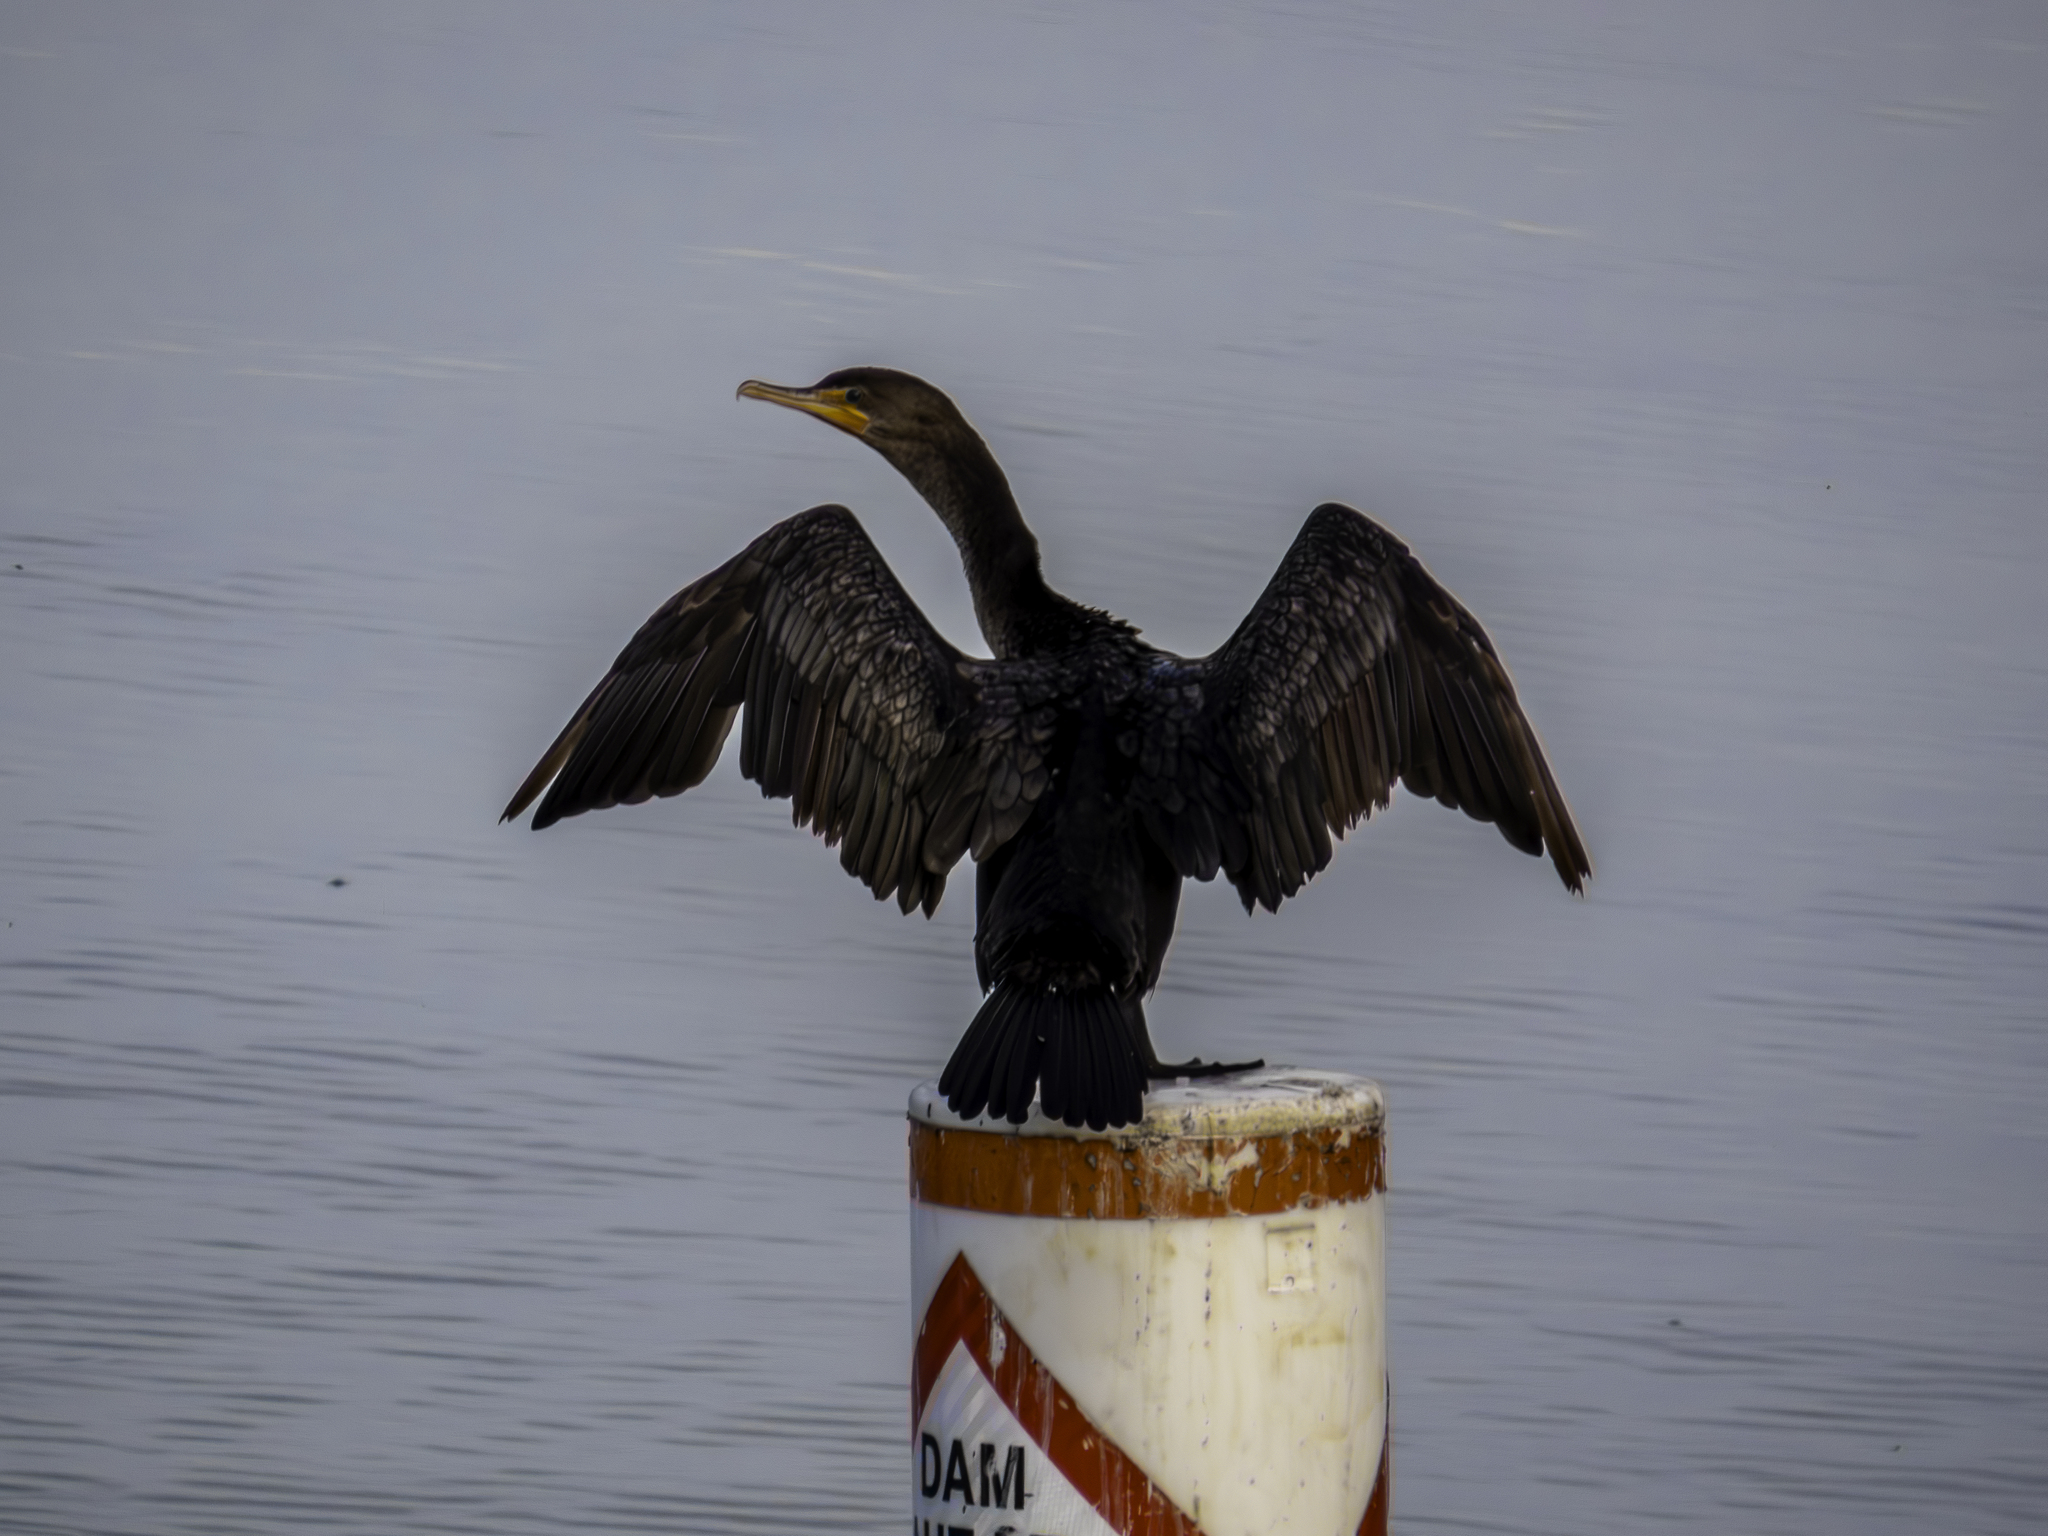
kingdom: Animalia
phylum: Chordata
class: Aves
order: Suliformes
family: Phalacrocoracidae
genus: Phalacrocorax
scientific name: Phalacrocorax auritus
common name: Double-crested cormorant
